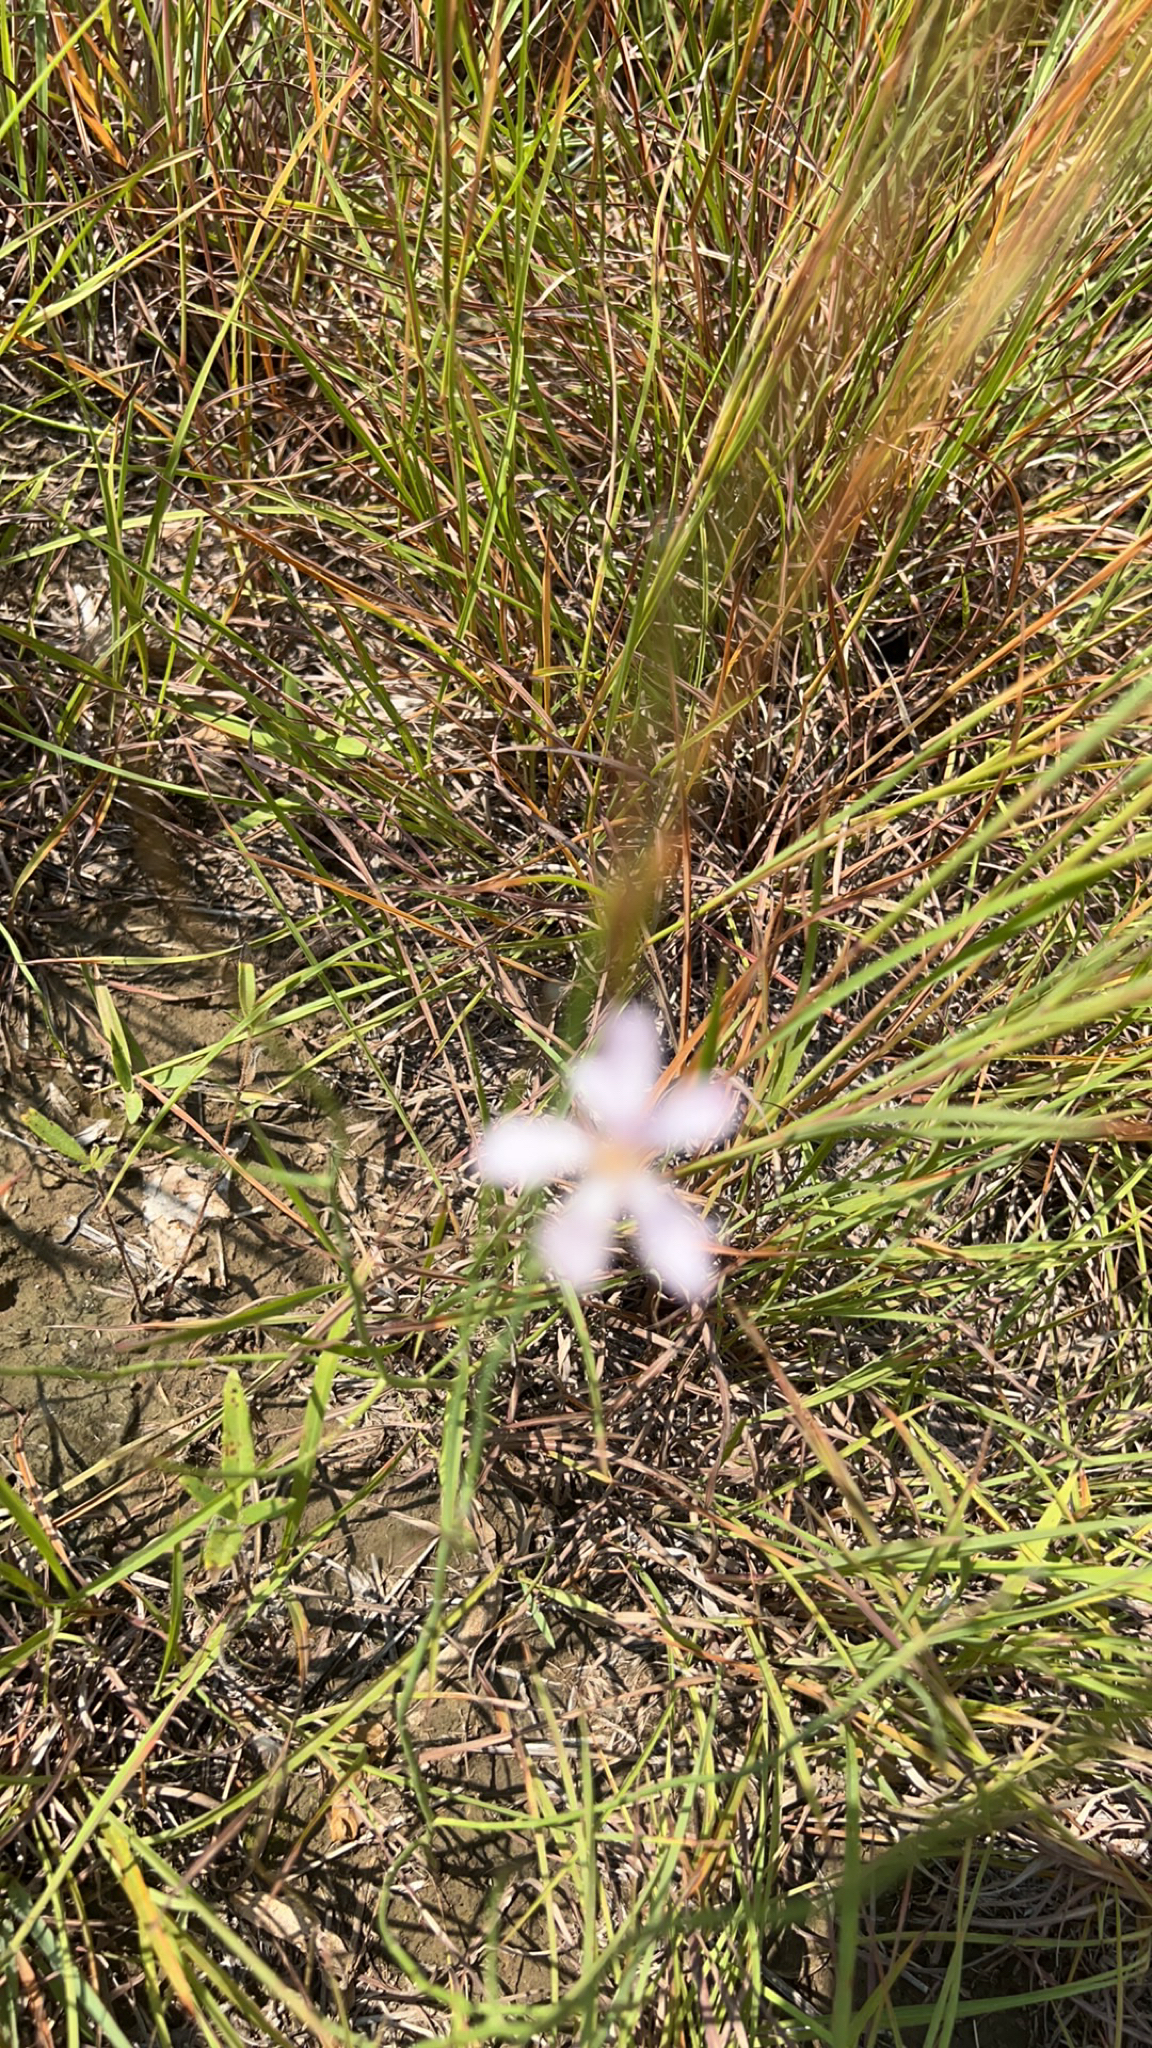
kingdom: Plantae
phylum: Tracheophyta
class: Magnoliopsida
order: Asterales
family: Asteraceae
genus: Lygodesmia
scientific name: Lygodesmia juncea
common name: Common skeletonweed
